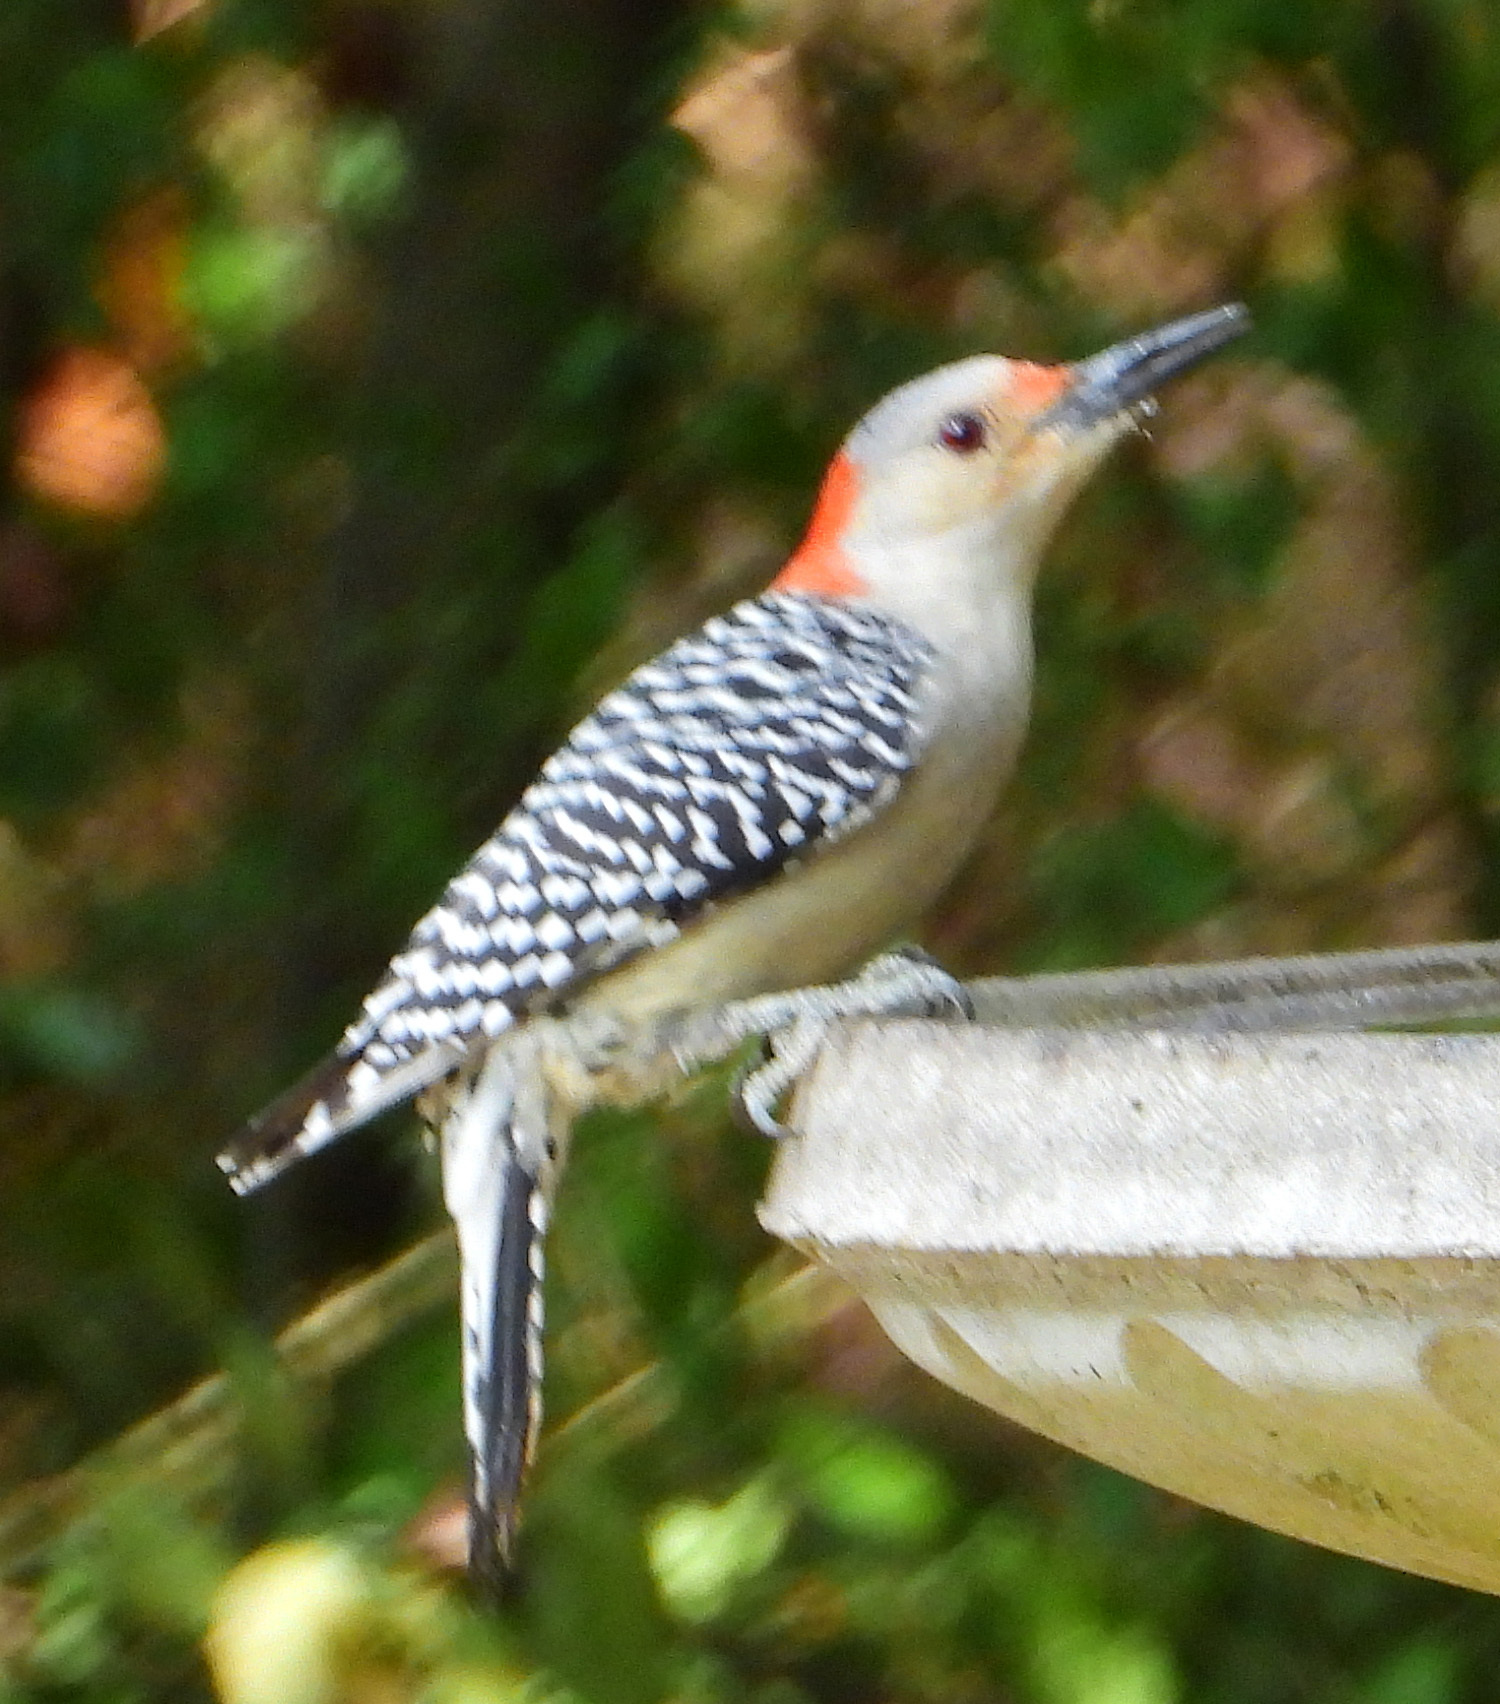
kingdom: Animalia
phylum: Chordata
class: Aves
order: Piciformes
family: Picidae
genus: Melanerpes
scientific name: Melanerpes carolinus
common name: Red-bellied woodpecker
